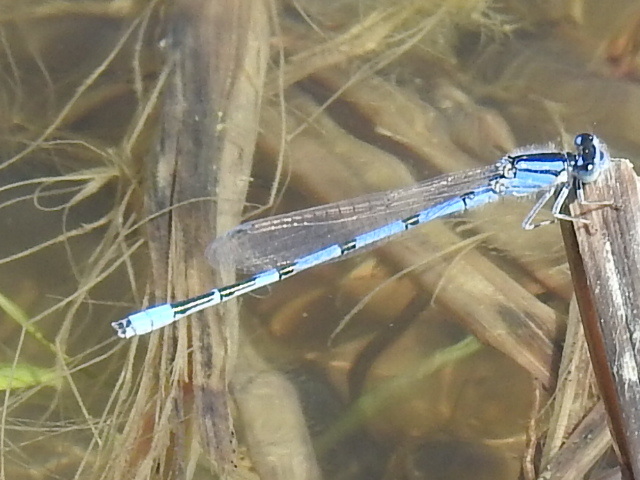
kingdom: Animalia
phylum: Arthropoda
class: Insecta
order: Odonata
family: Coenagrionidae
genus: Enallagma
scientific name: Enallagma civile
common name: Damselfly
